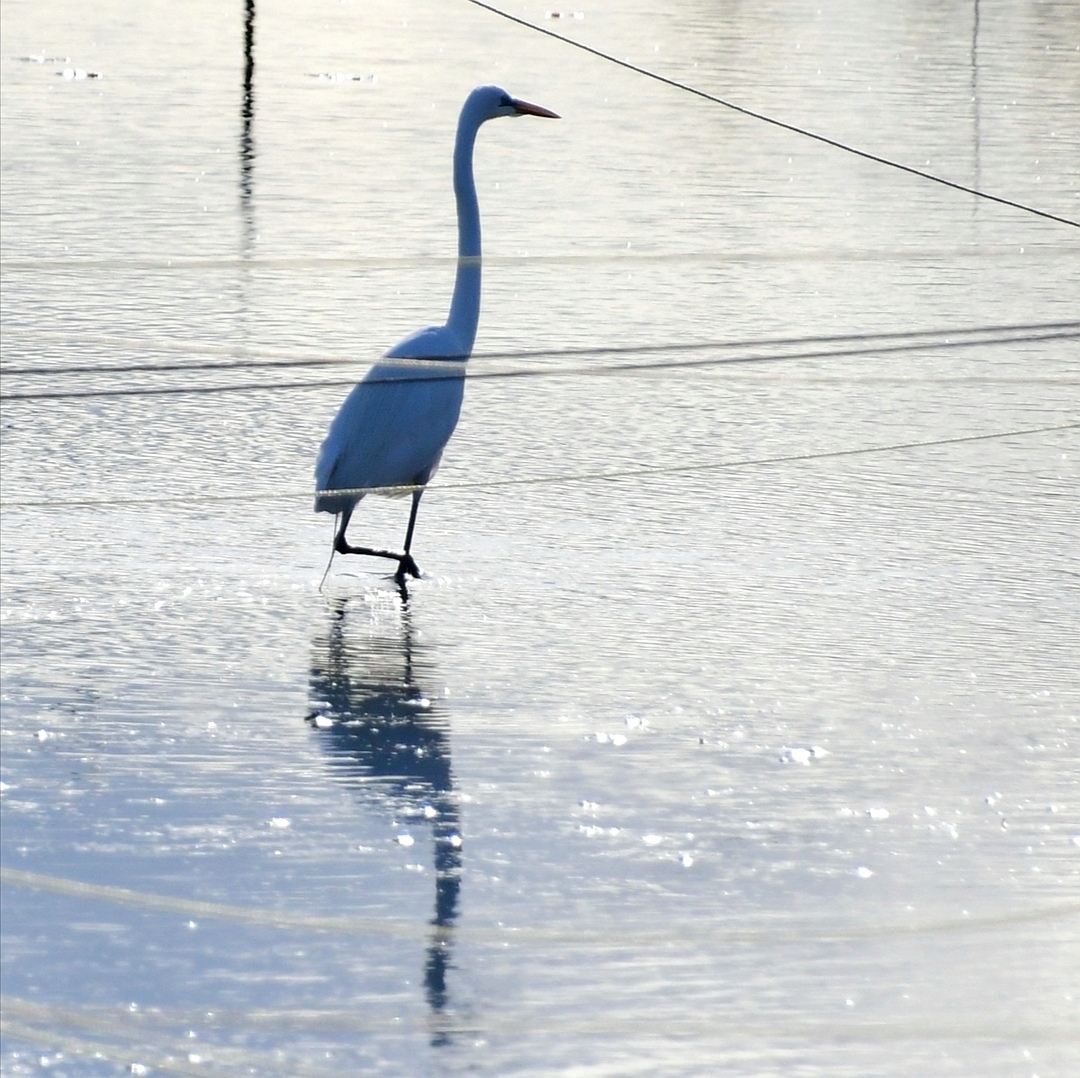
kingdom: Animalia
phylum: Chordata
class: Aves
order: Pelecaniformes
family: Ardeidae
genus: Ardea
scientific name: Ardea alba
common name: Great egret
